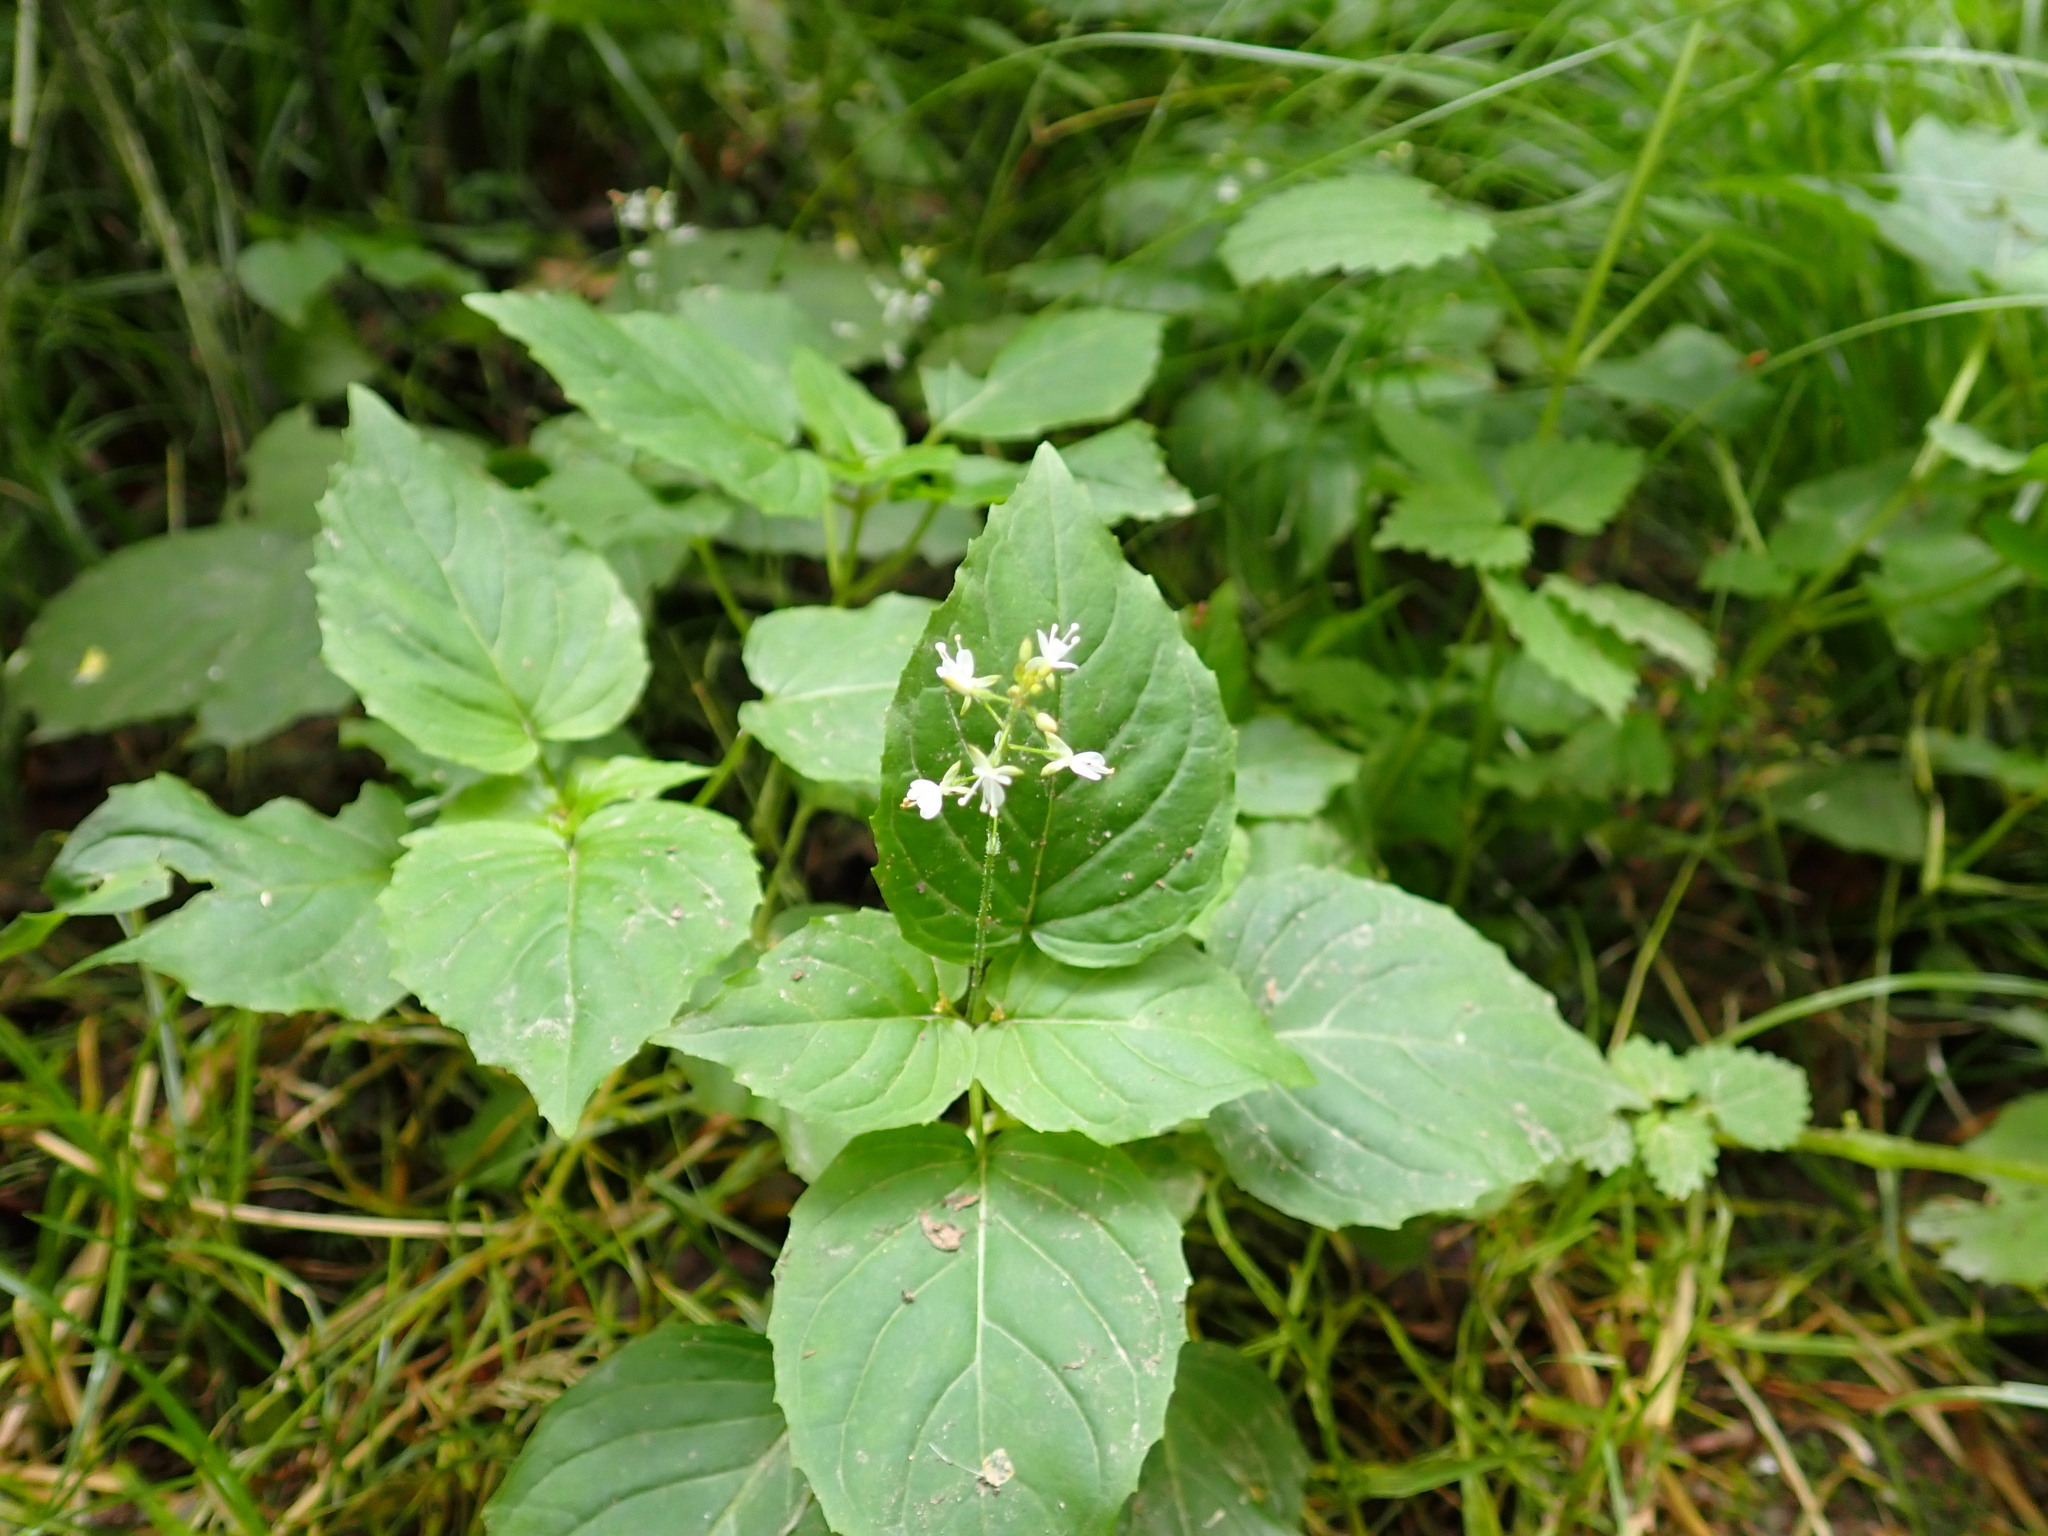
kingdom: Plantae
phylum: Tracheophyta
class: Magnoliopsida
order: Myrtales
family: Onagraceae
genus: Circaea
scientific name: Circaea intermedia
